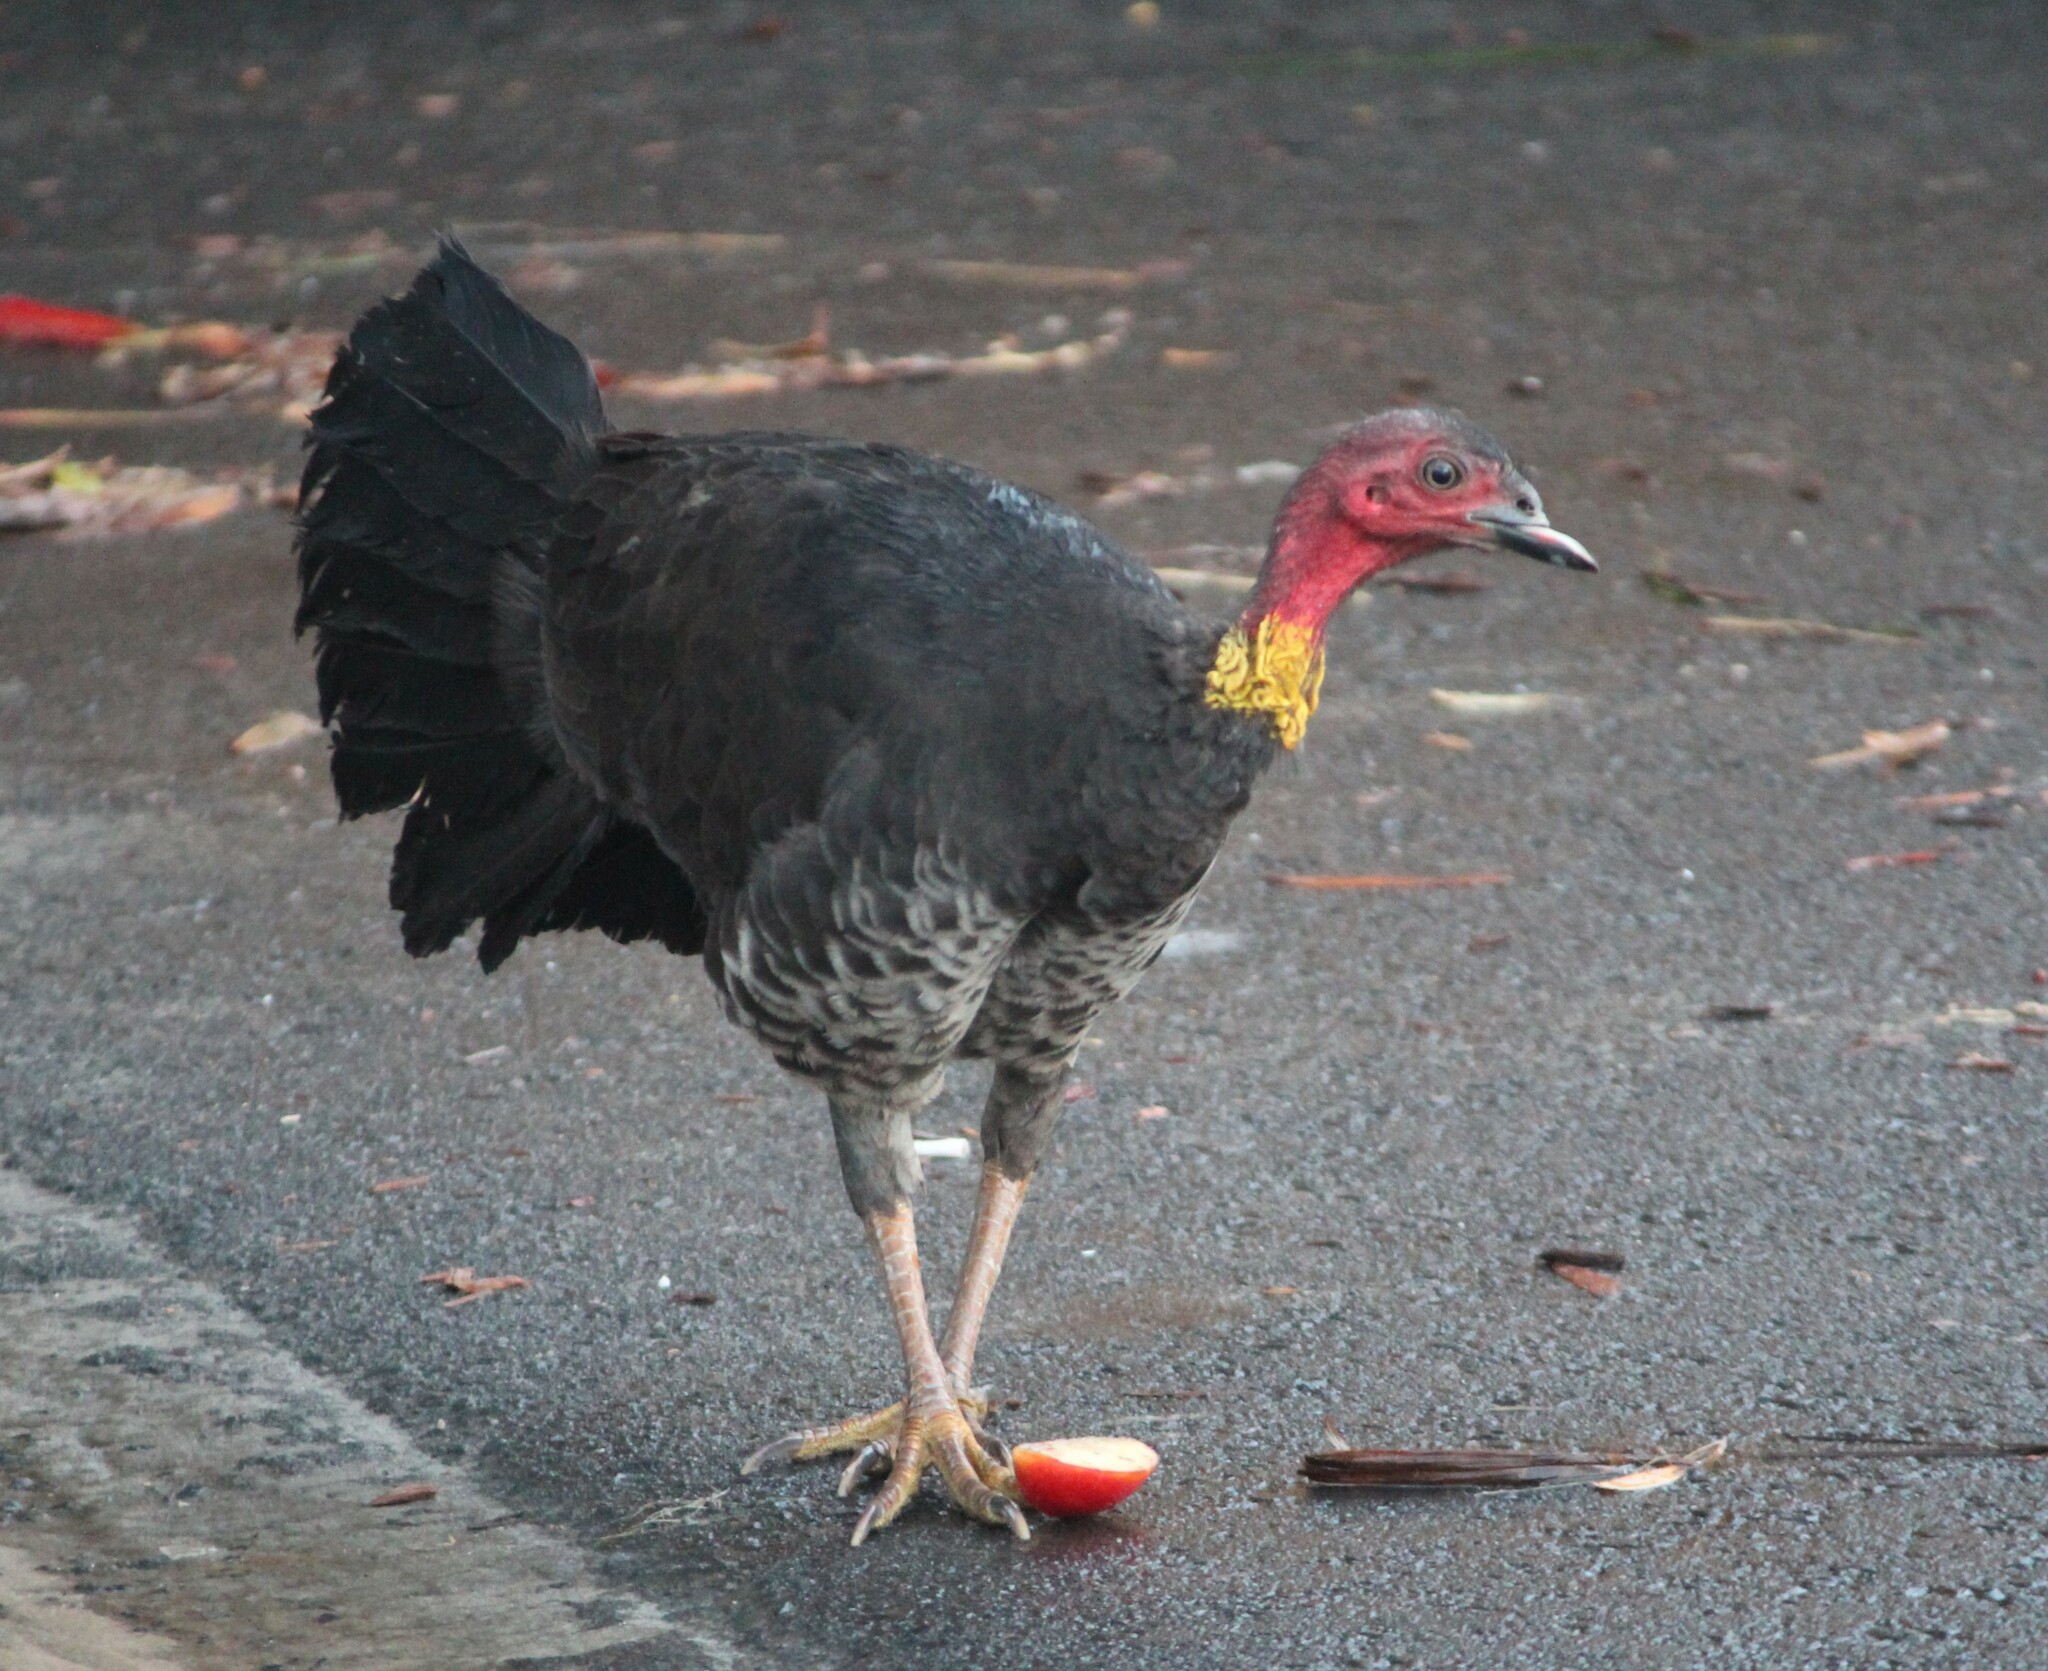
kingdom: Animalia
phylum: Chordata
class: Aves
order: Galliformes
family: Megapodiidae
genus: Alectura
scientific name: Alectura lathami
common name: Australian brushturkey
